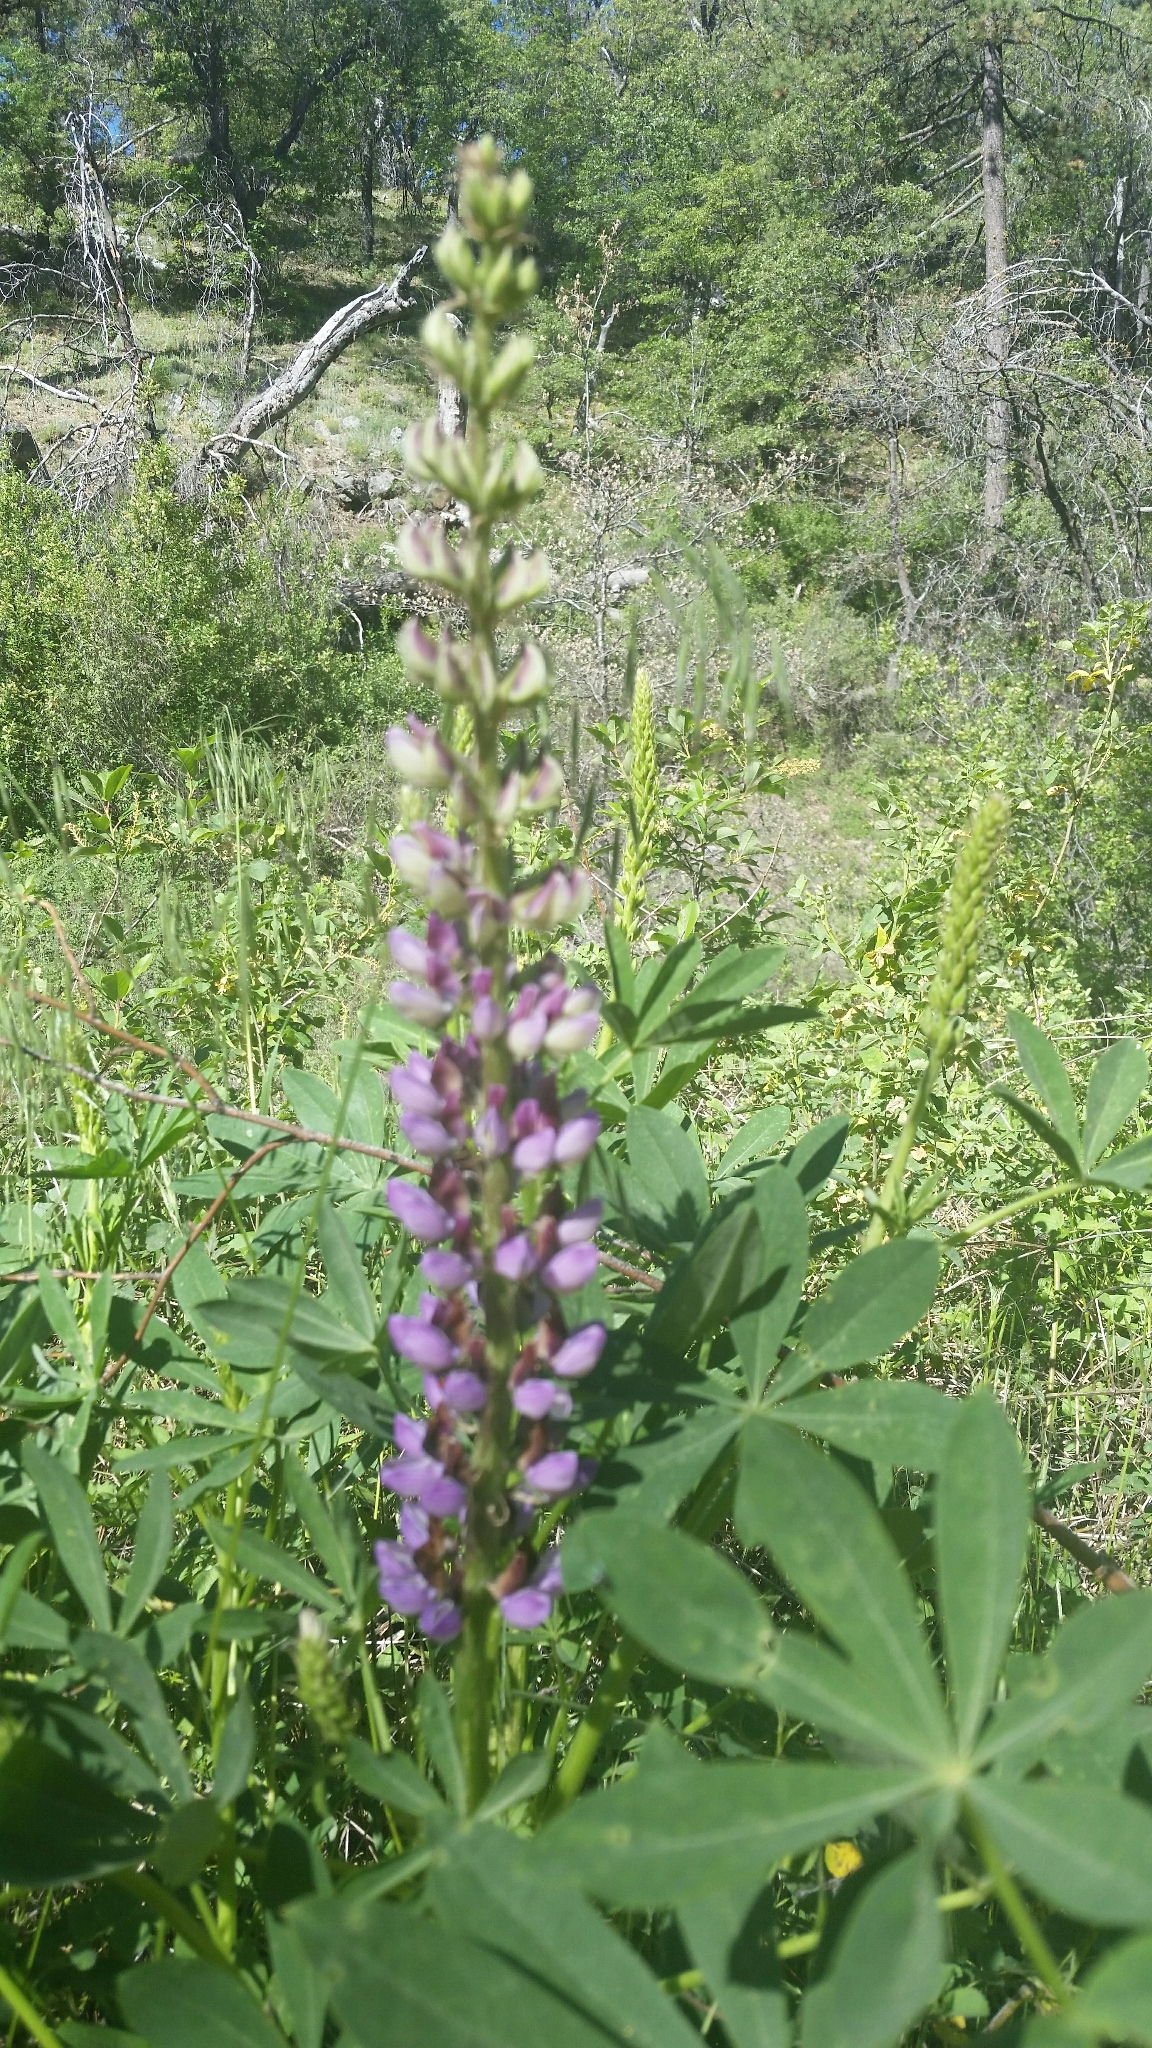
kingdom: Plantae
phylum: Tracheophyta
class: Magnoliopsida
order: Fabales
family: Fabaceae
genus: Lupinus
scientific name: Lupinus latifolius
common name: Broad-leaved lupine
